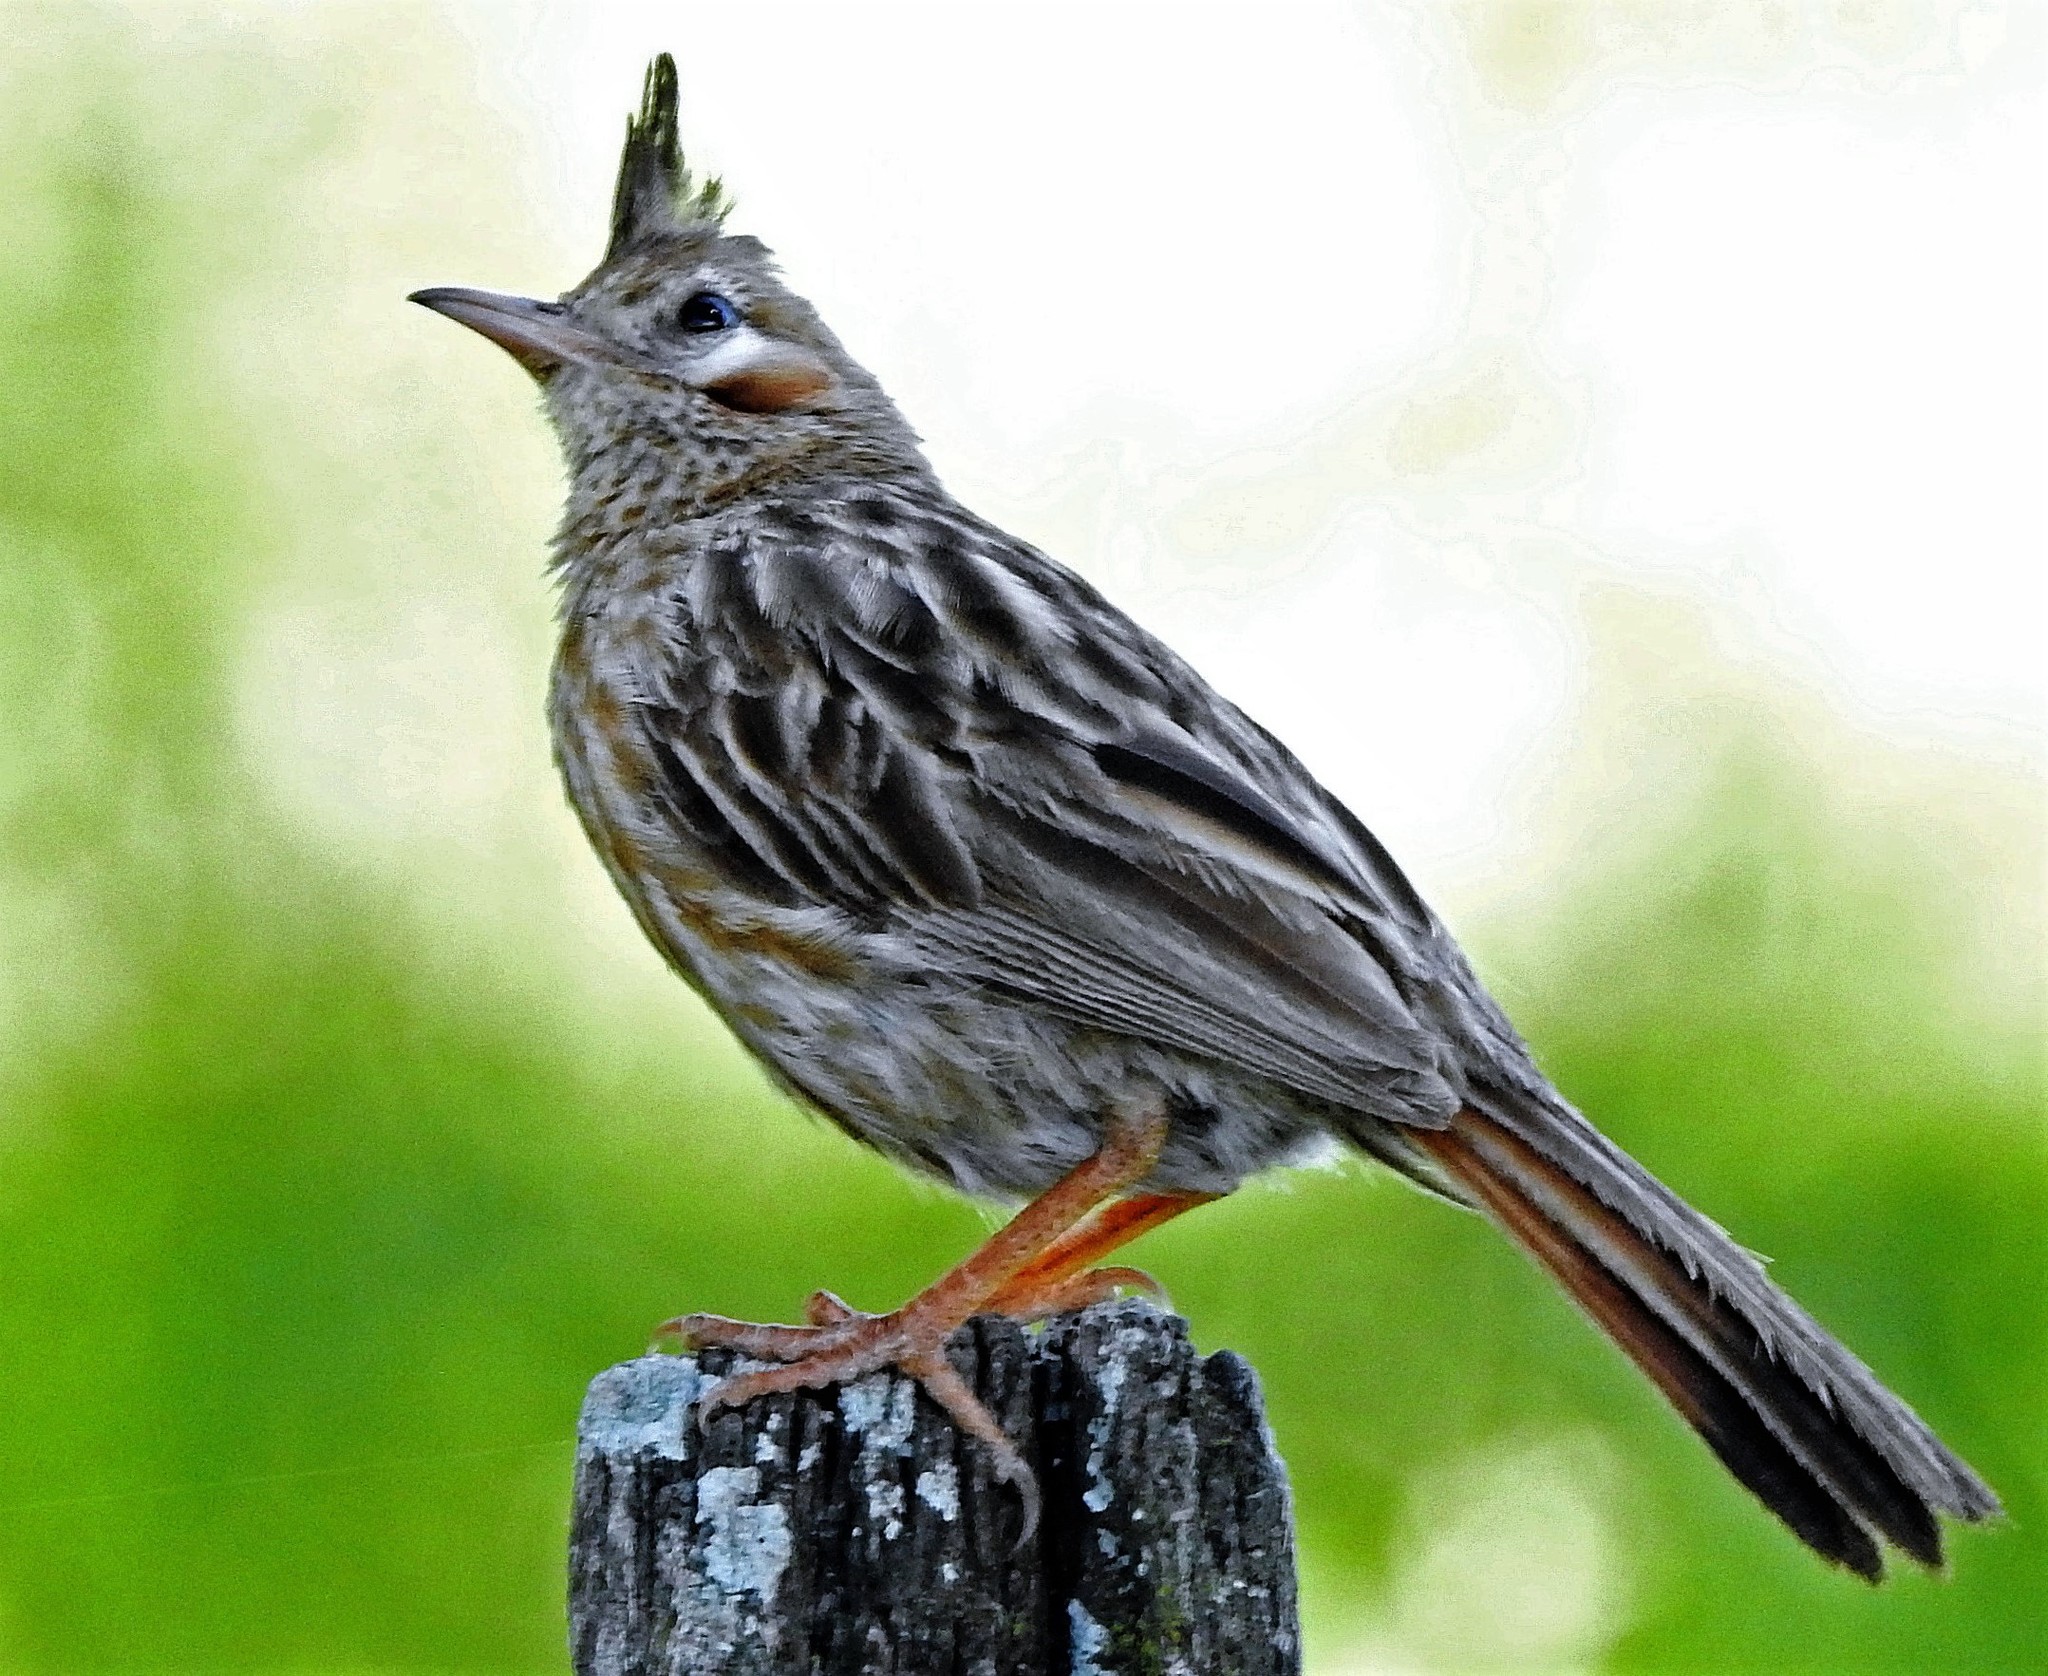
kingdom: Animalia
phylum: Chordata
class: Aves
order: Passeriformes
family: Furnariidae
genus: Coryphistera
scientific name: Coryphistera alaudina
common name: Lark-like brushrunner
